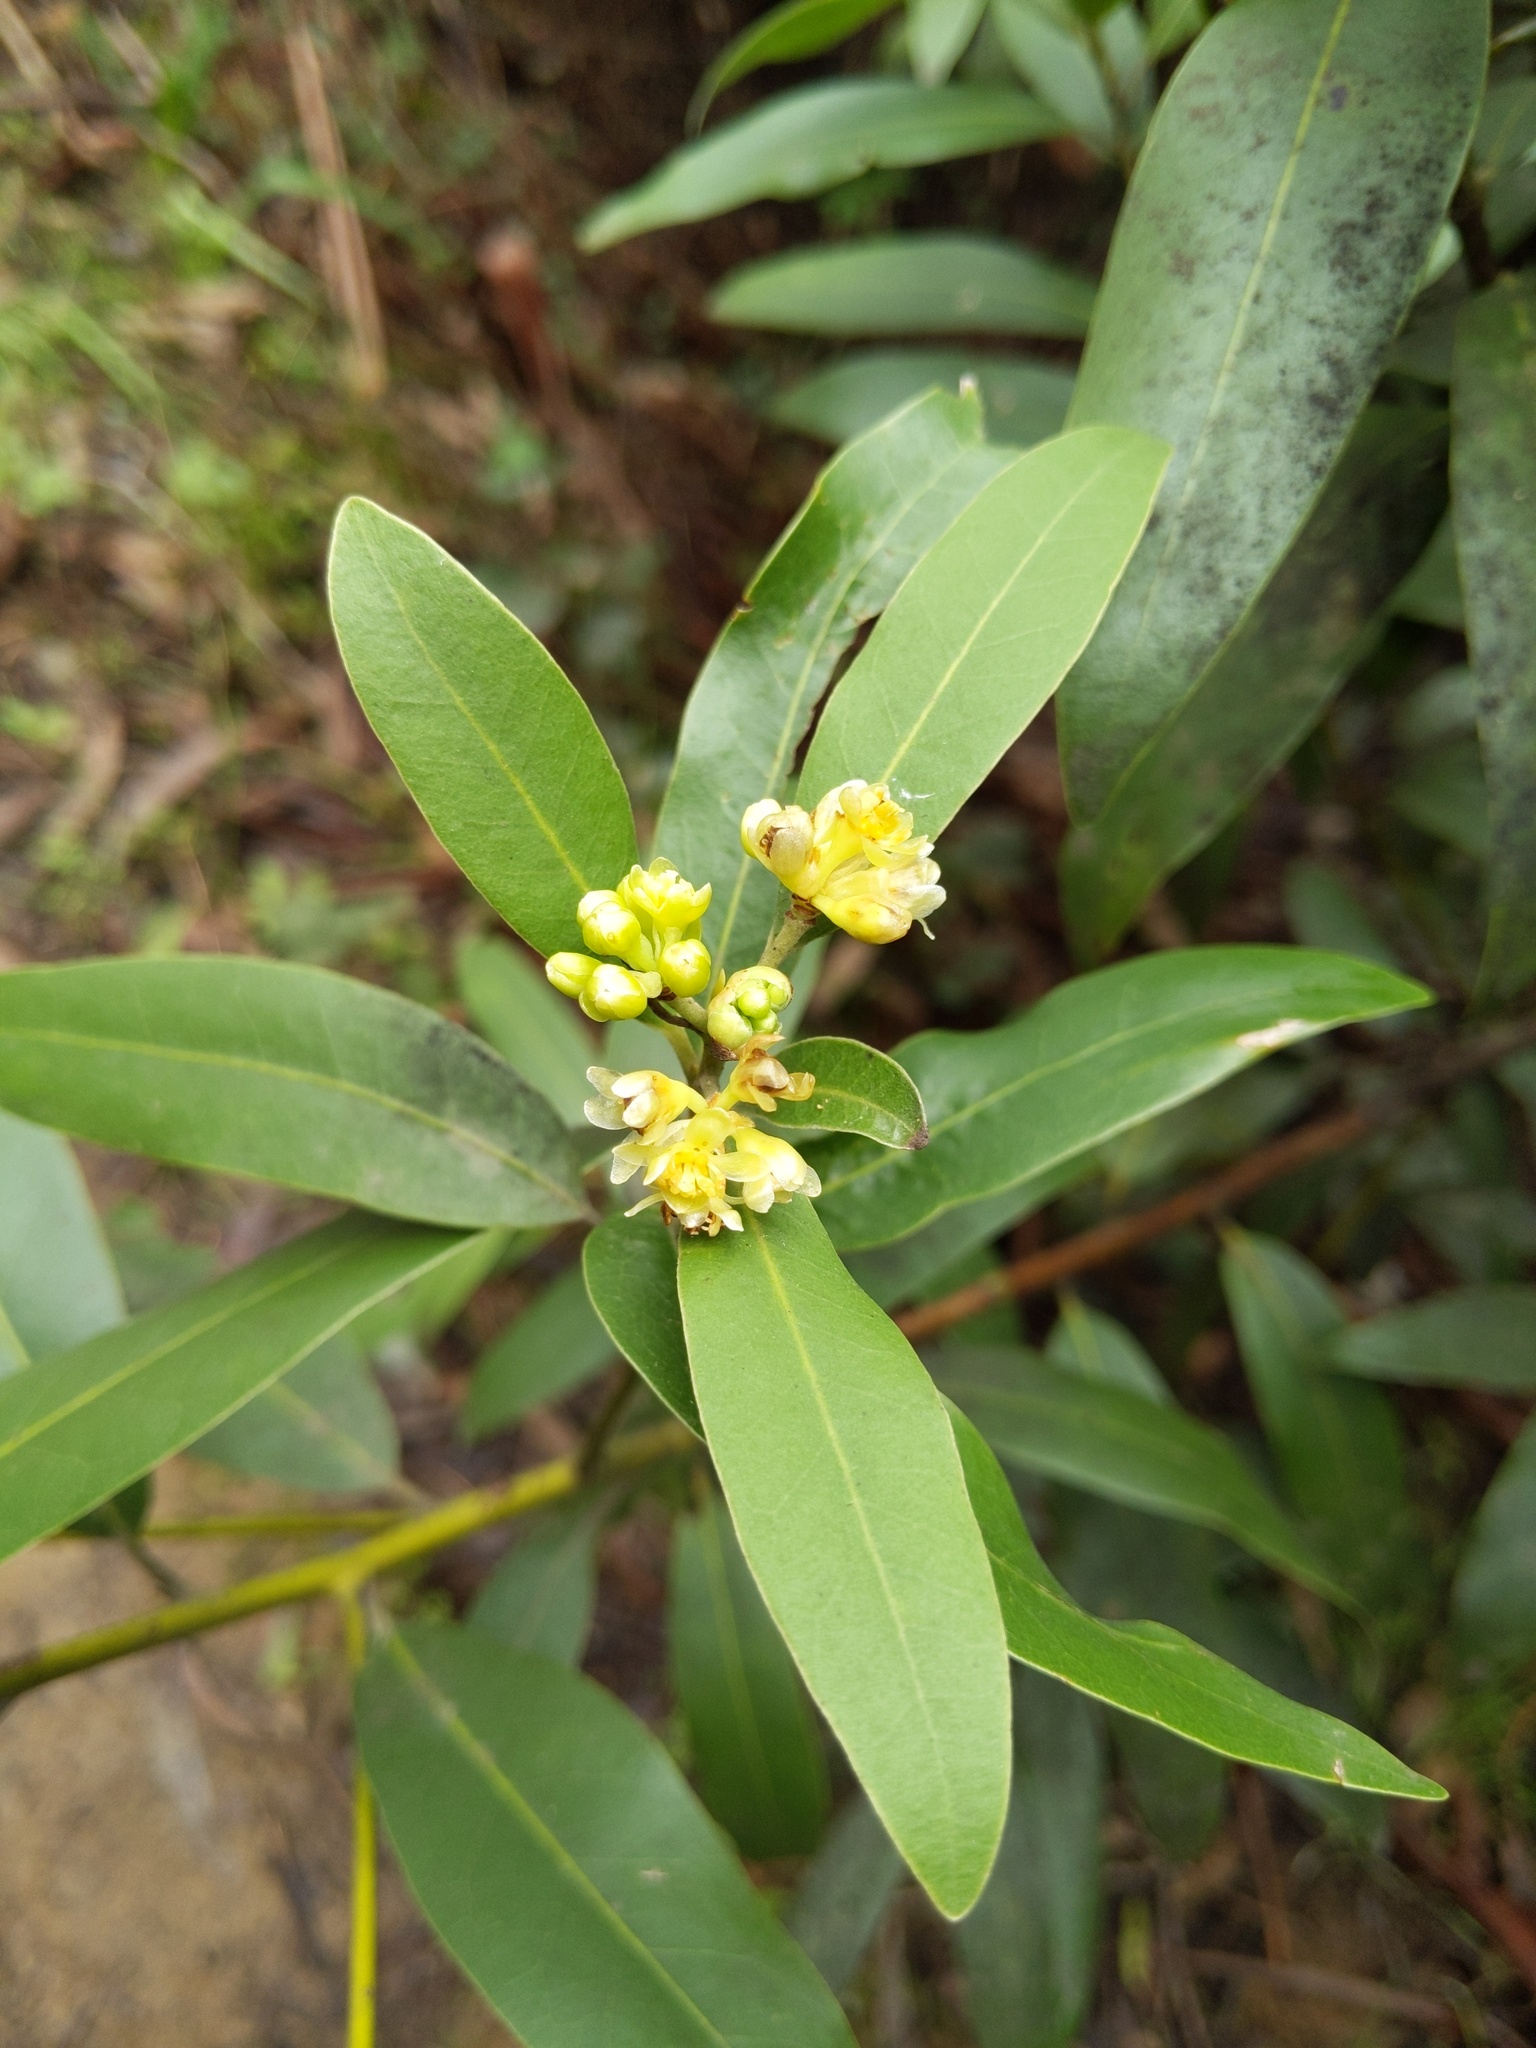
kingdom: Plantae
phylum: Tracheophyta
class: Magnoliopsida
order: Laurales
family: Lauraceae
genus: Umbellularia
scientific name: Umbellularia californica
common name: California bay
